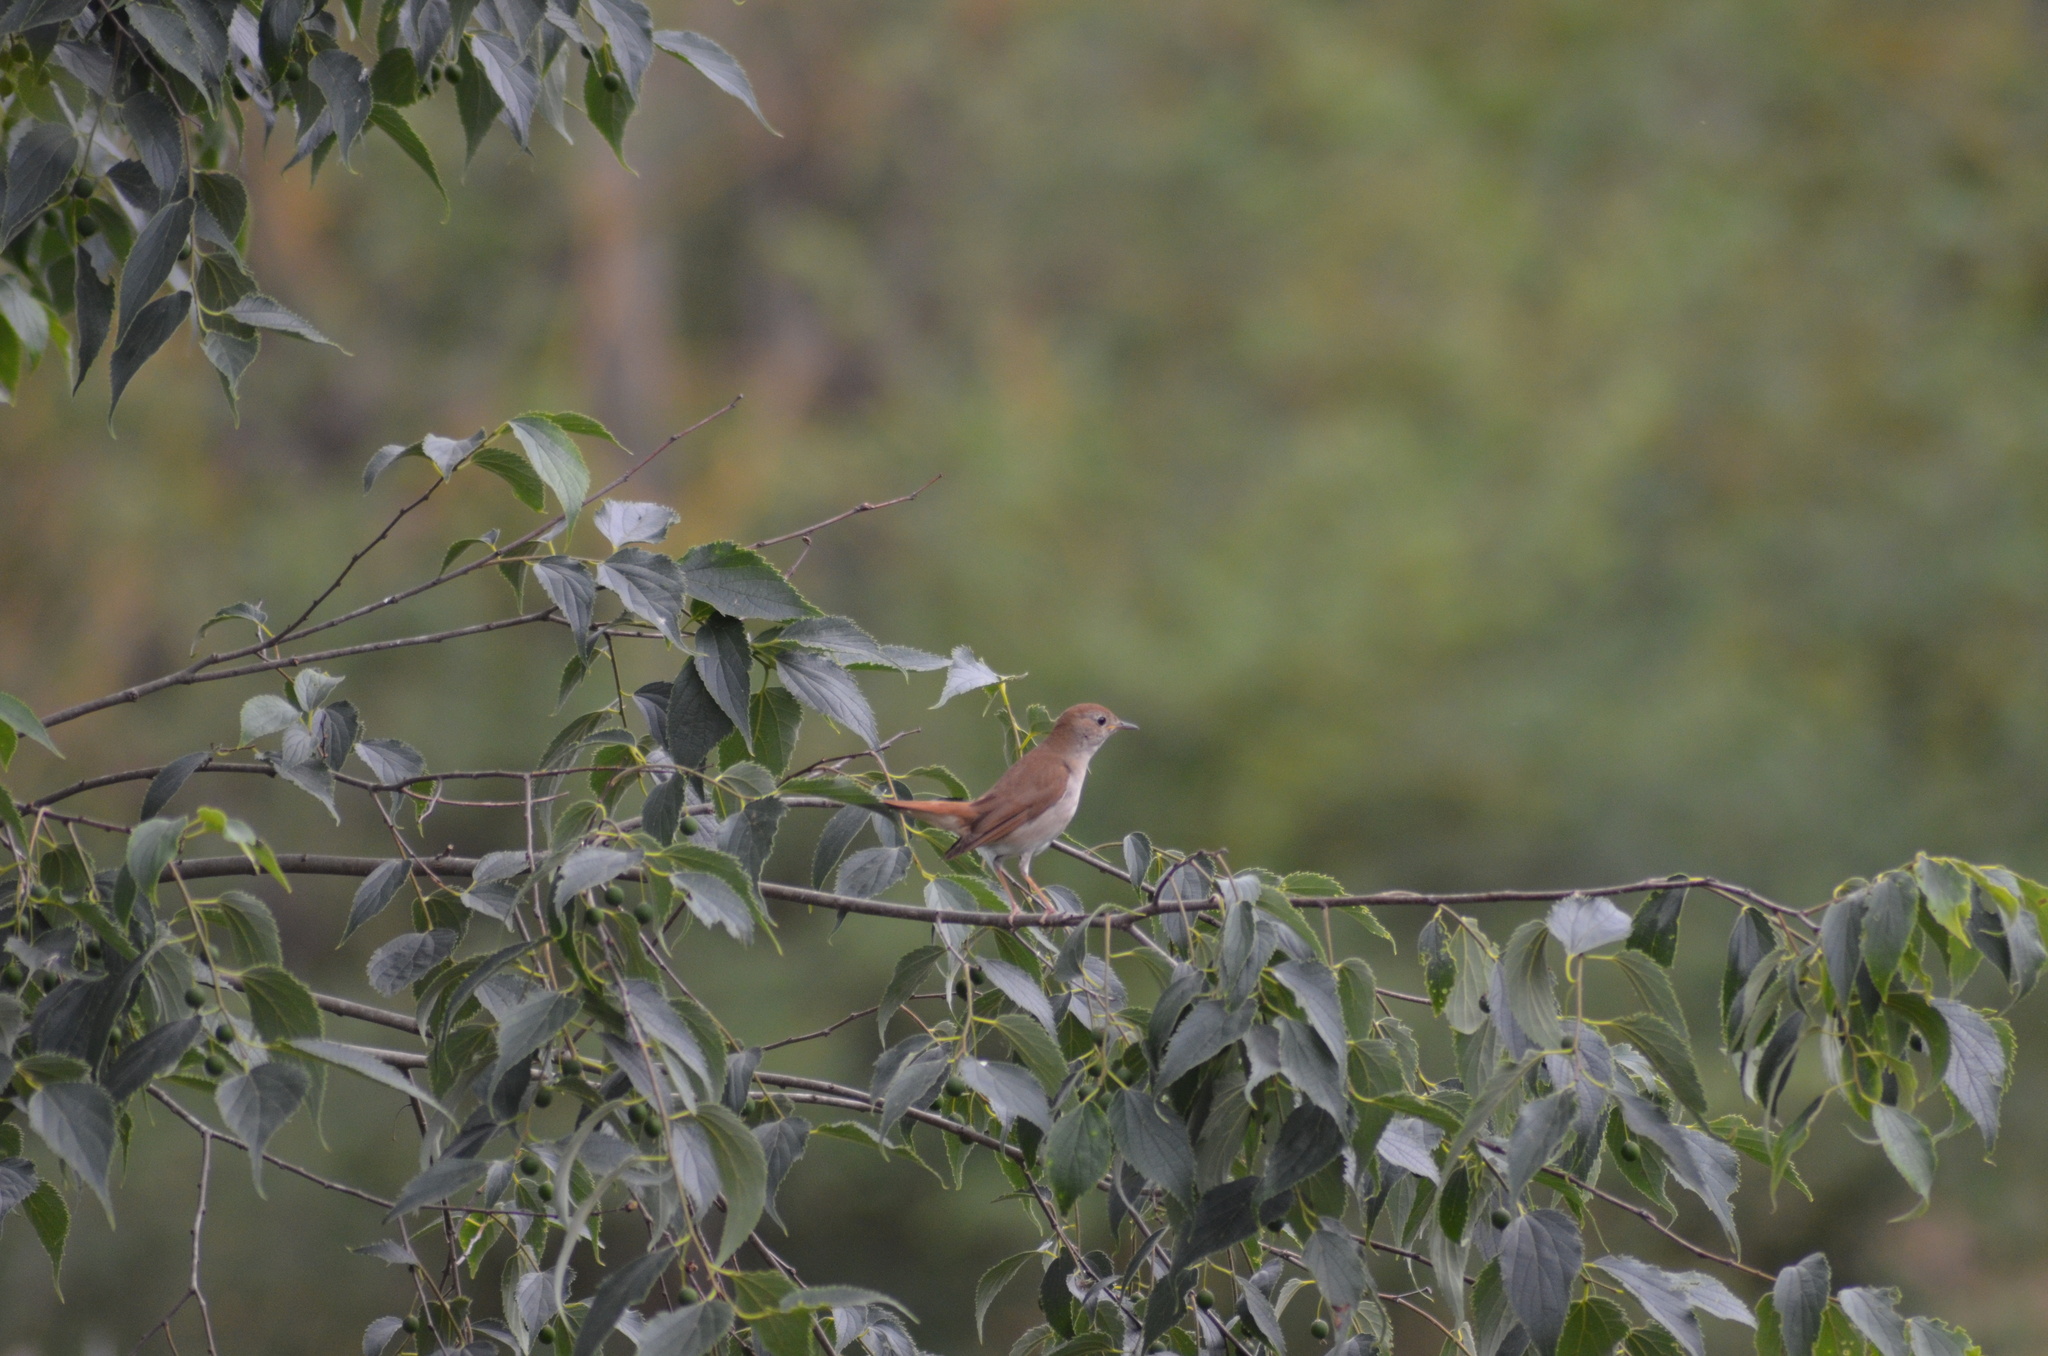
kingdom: Animalia
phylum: Chordata
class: Aves
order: Passeriformes
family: Muscicapidae
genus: Luscinia
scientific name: Luscinia megarhynchos
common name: Common nightingale
